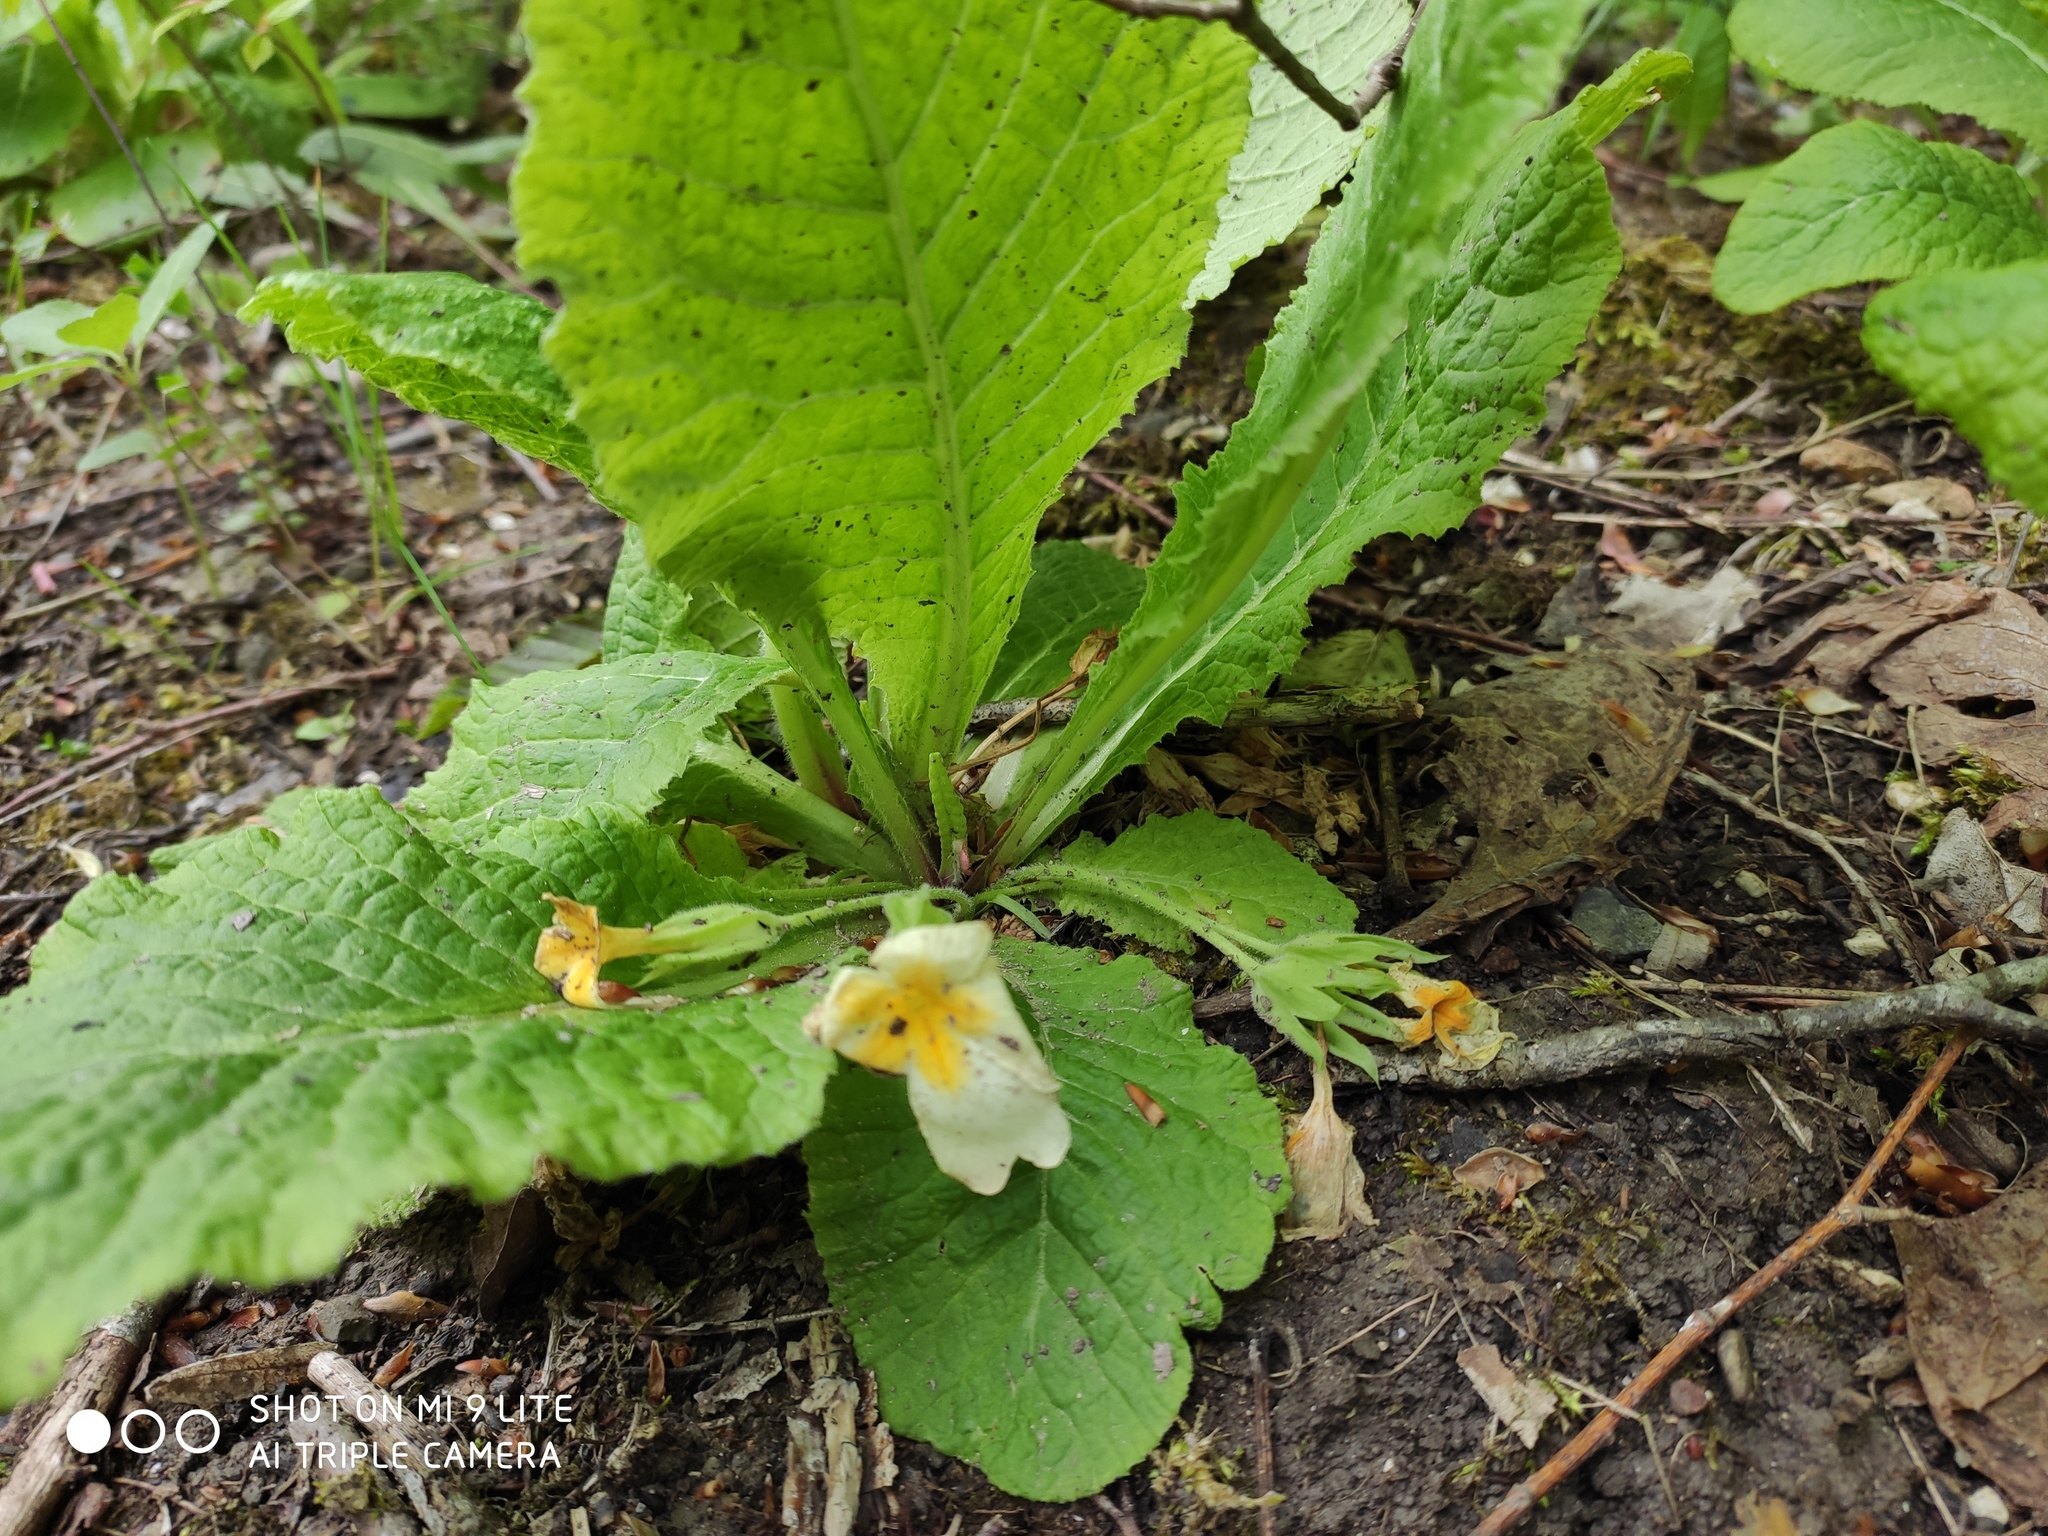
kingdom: Plantae
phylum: Tracheophyta
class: Magnoliopsida
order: Ericales
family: Primulaceae
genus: Primula
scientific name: Primula vulgaris
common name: Primrose
